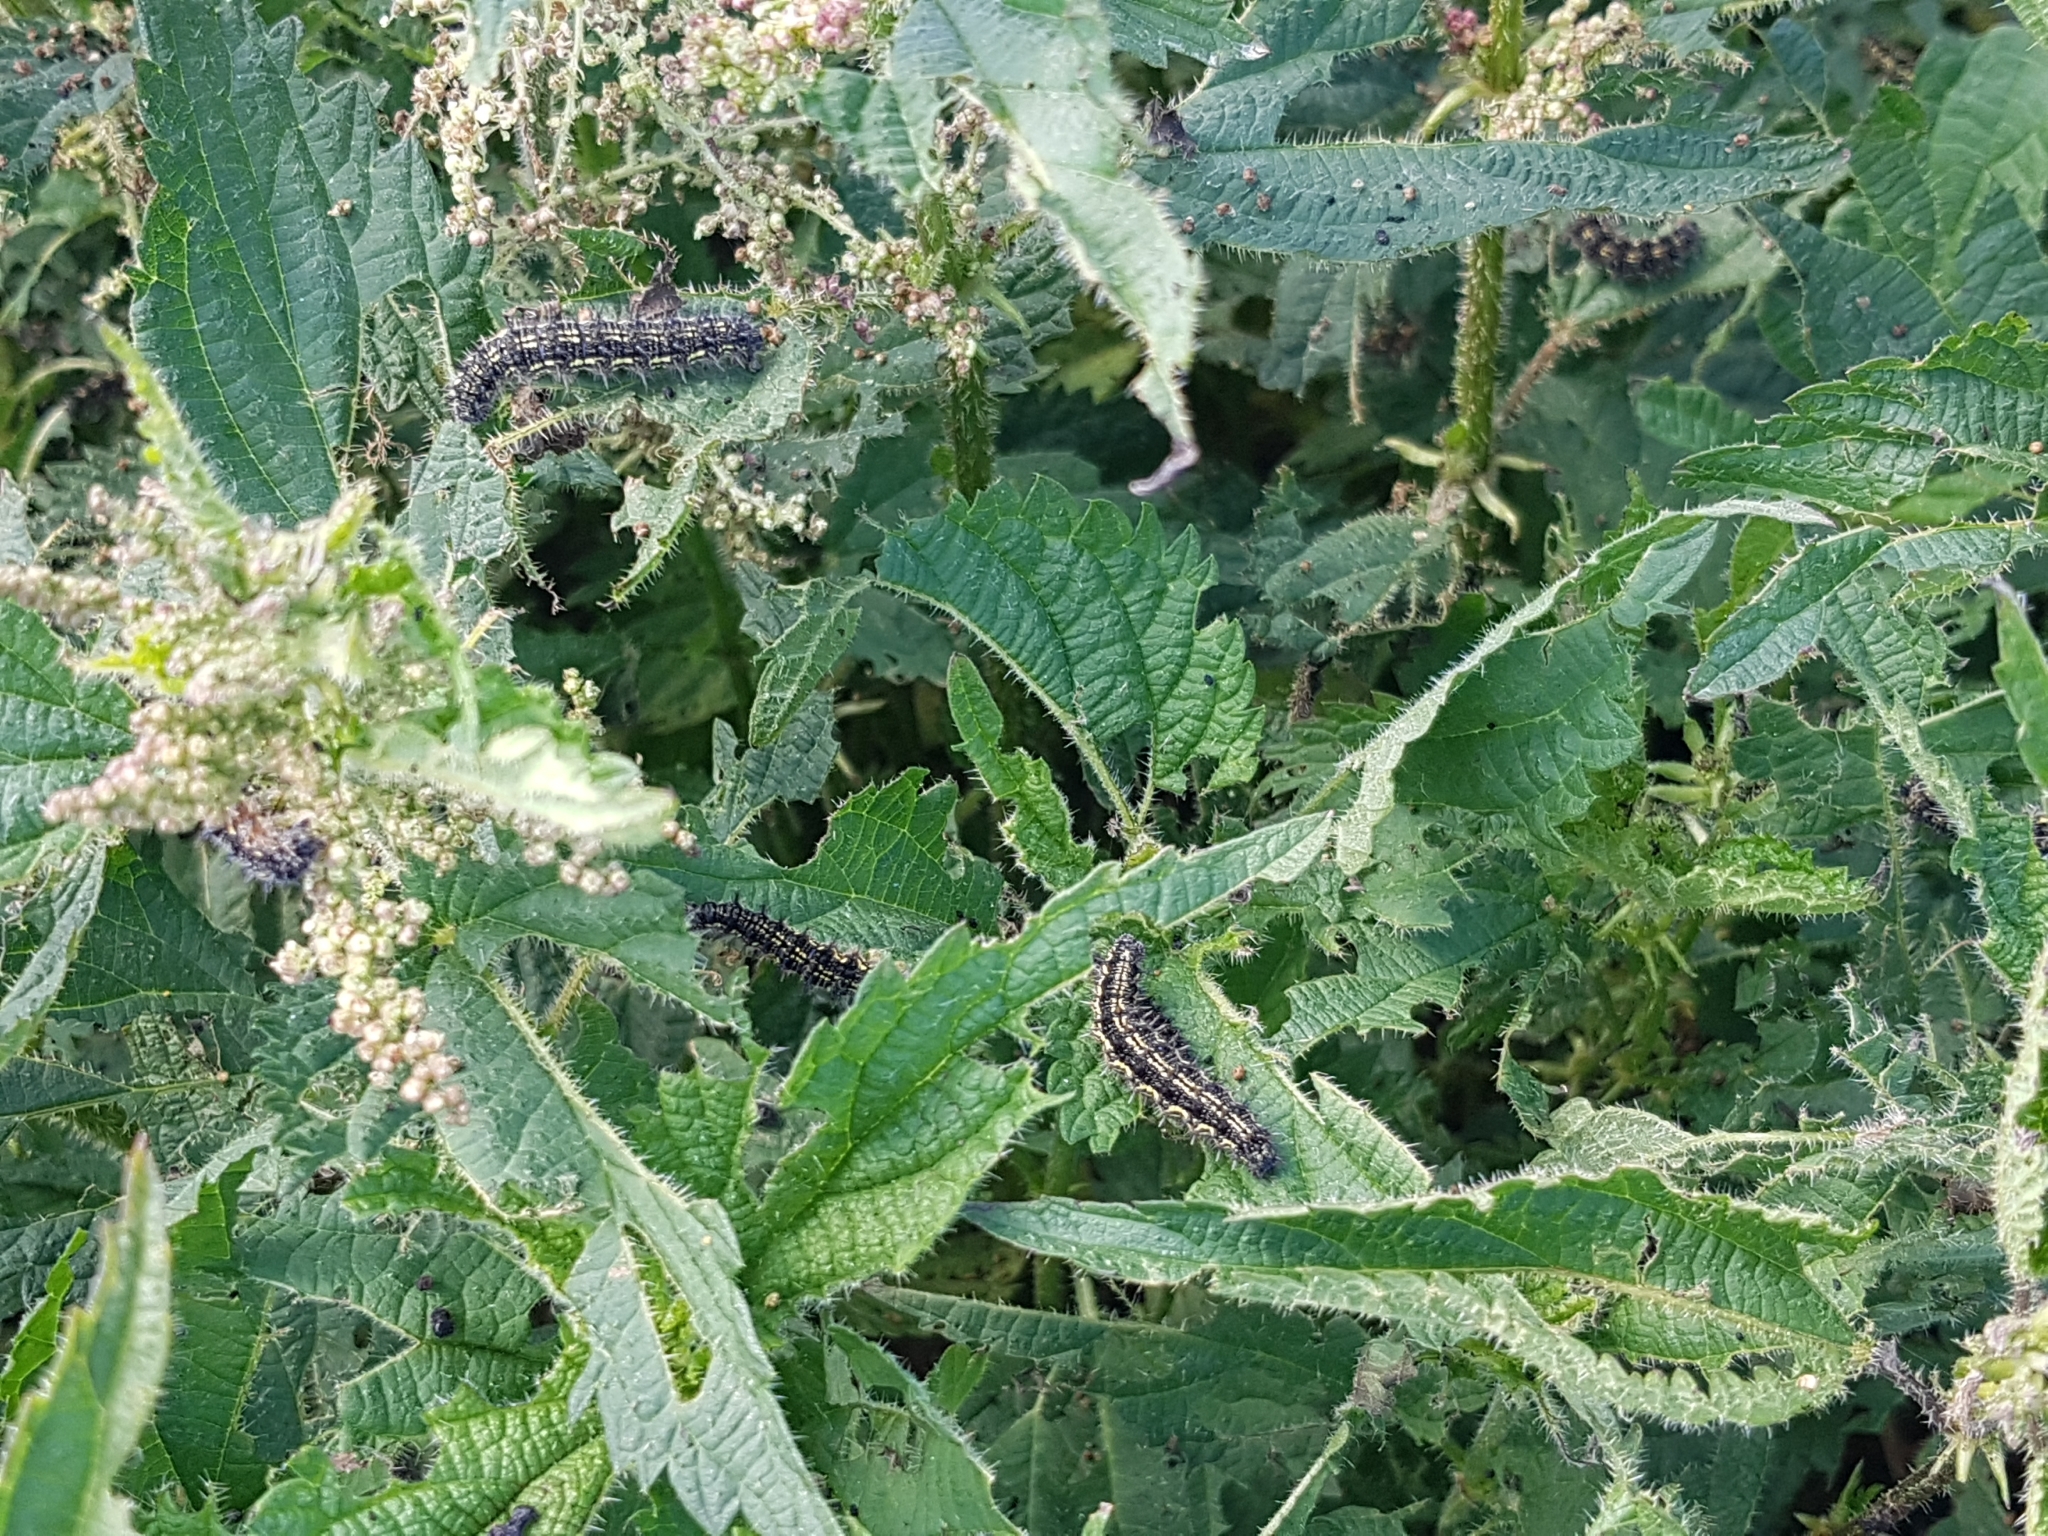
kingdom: Animalia
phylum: Arthropoda
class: Insecta
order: Lepidoptera
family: Nymphalidae
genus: Aglais
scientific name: Aglais urticae
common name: Small tortoiseshell
